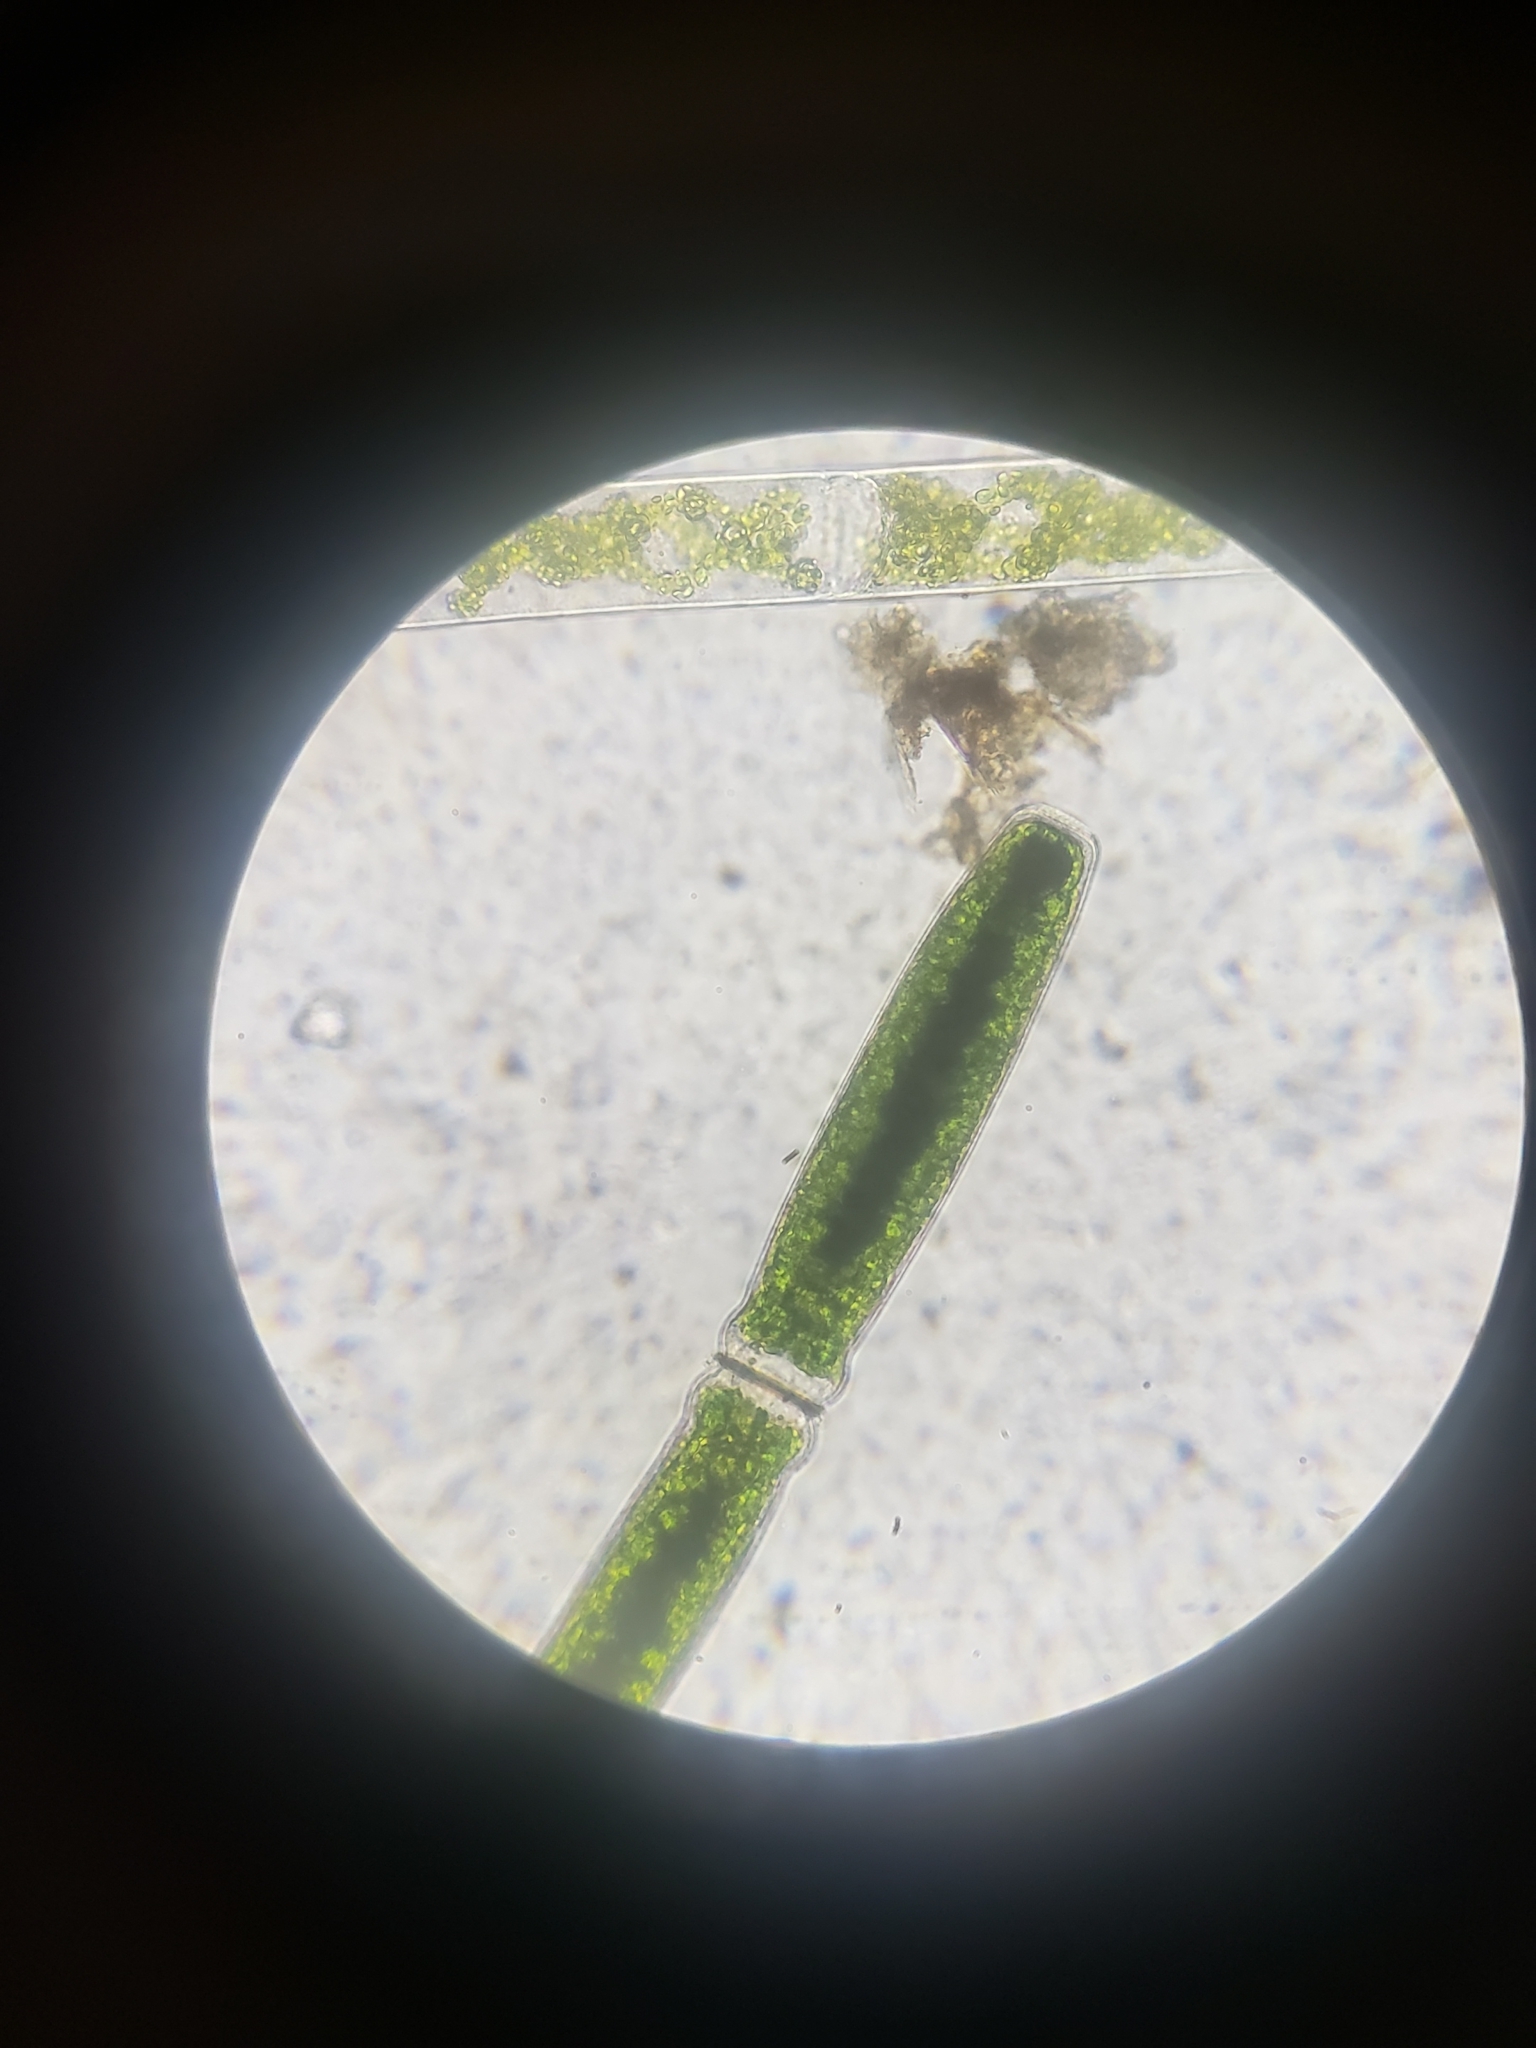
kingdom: Plantae
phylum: Charophyta
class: Conjugatophyceae
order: Desmidiales
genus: Pleurotaenium
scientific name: Pleurotaenium trabecula
